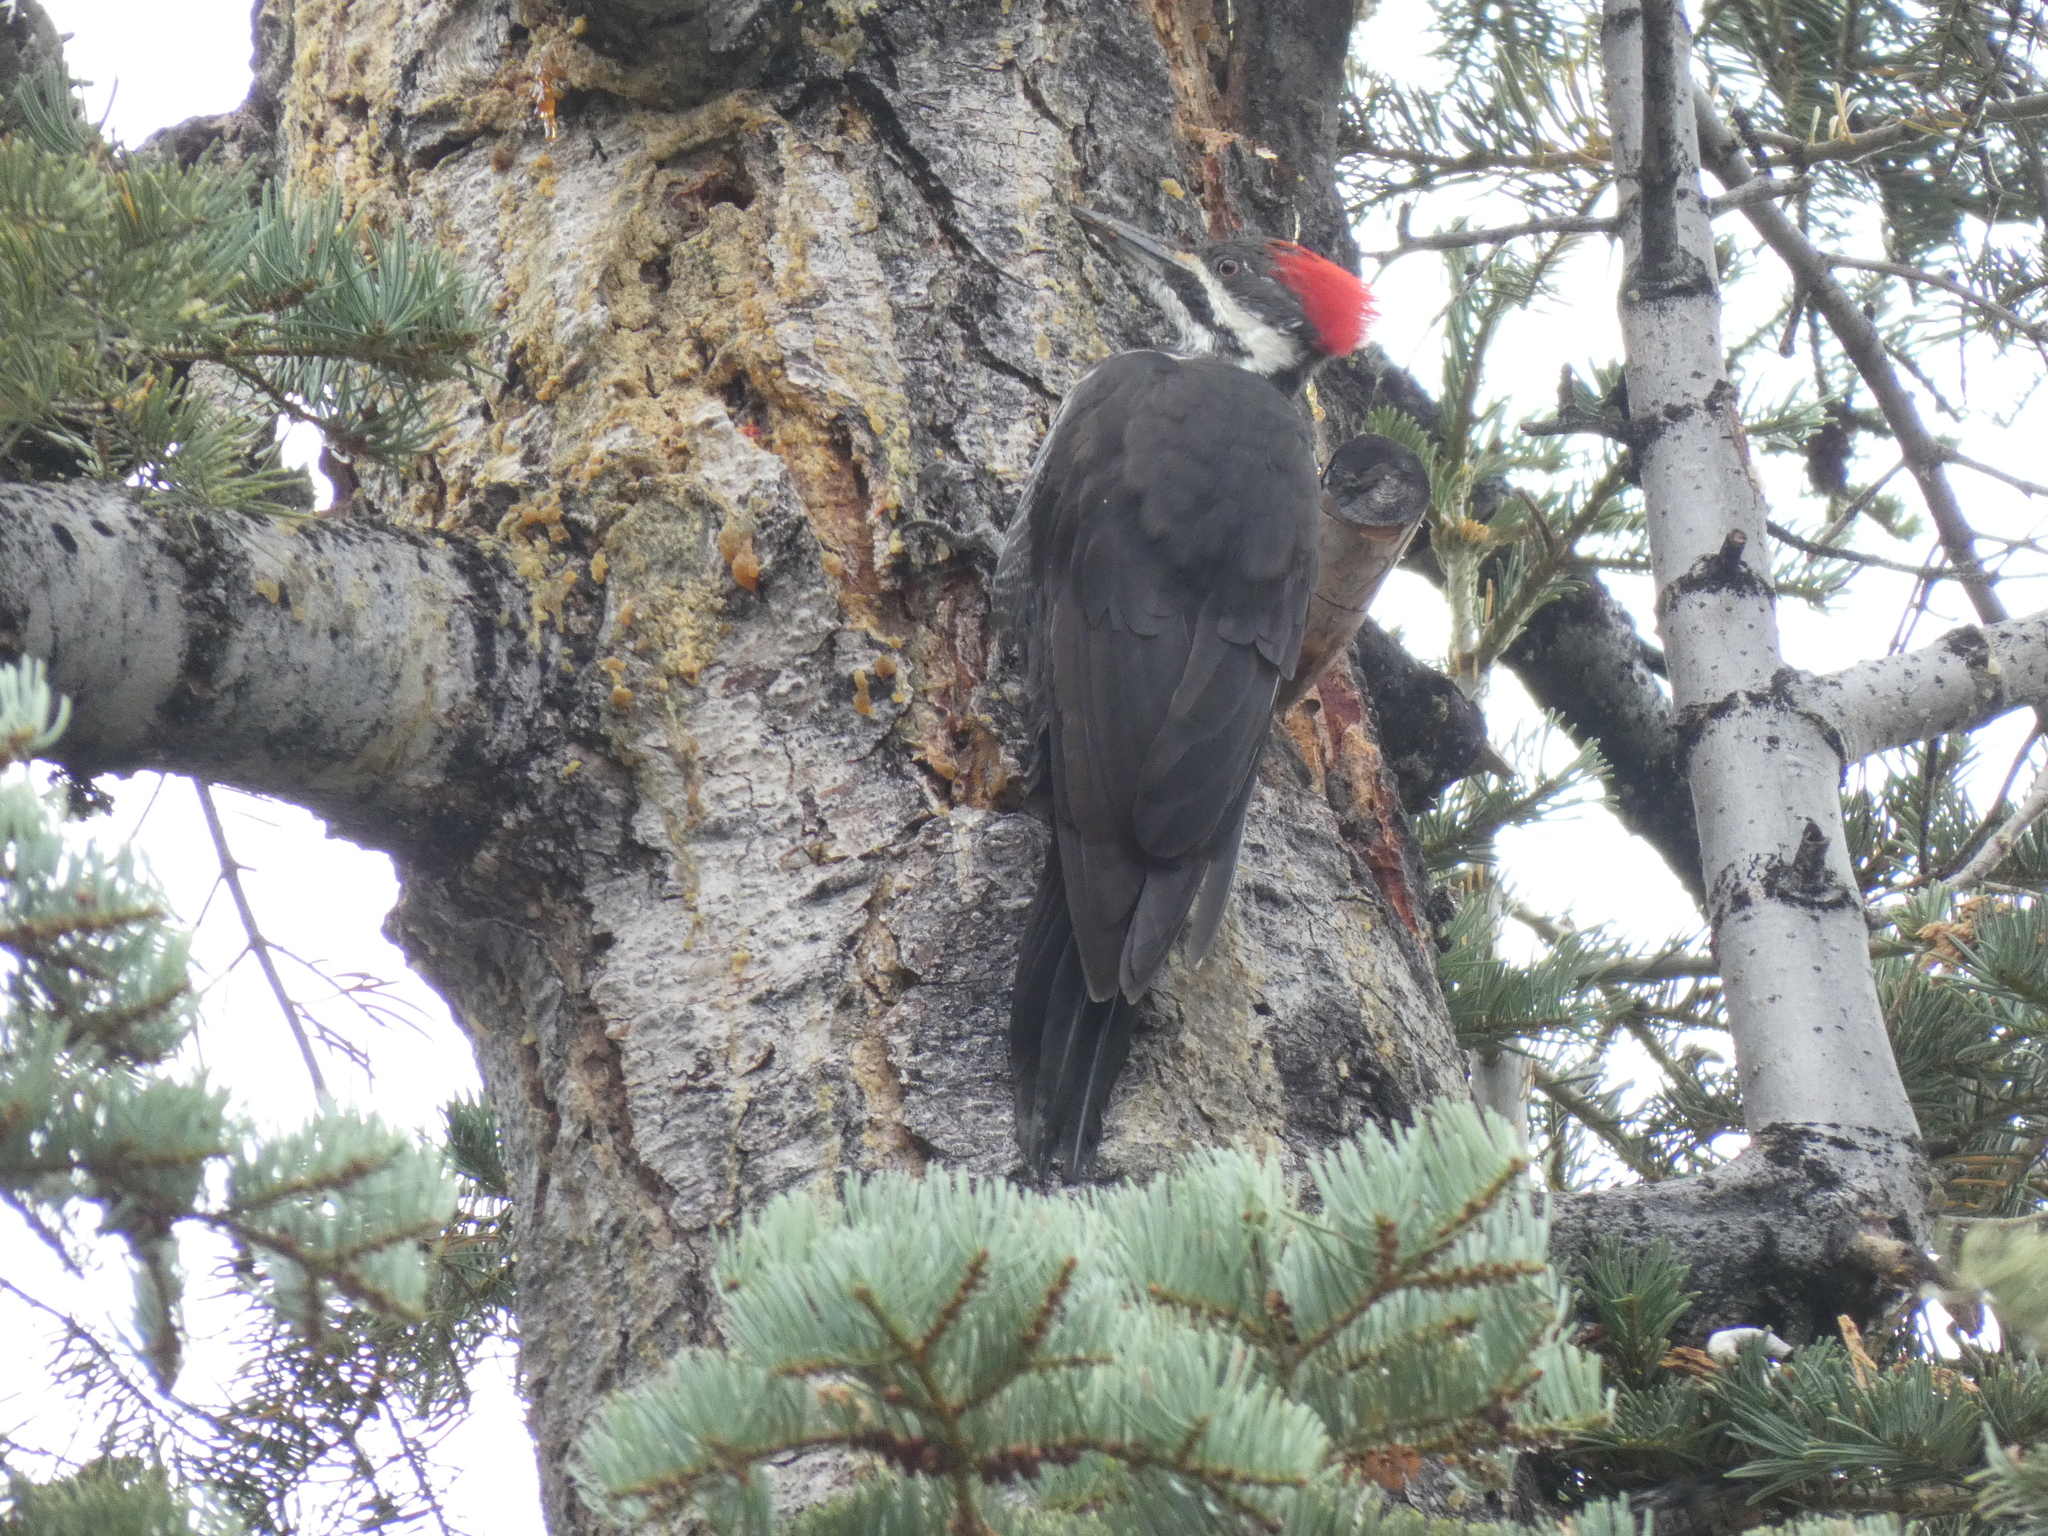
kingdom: Animalia
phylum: Chordata
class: Aves
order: Piciformes
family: Picidae
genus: Dryocopus
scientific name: Dryocopus pileatus
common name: Pileated woodpecker
